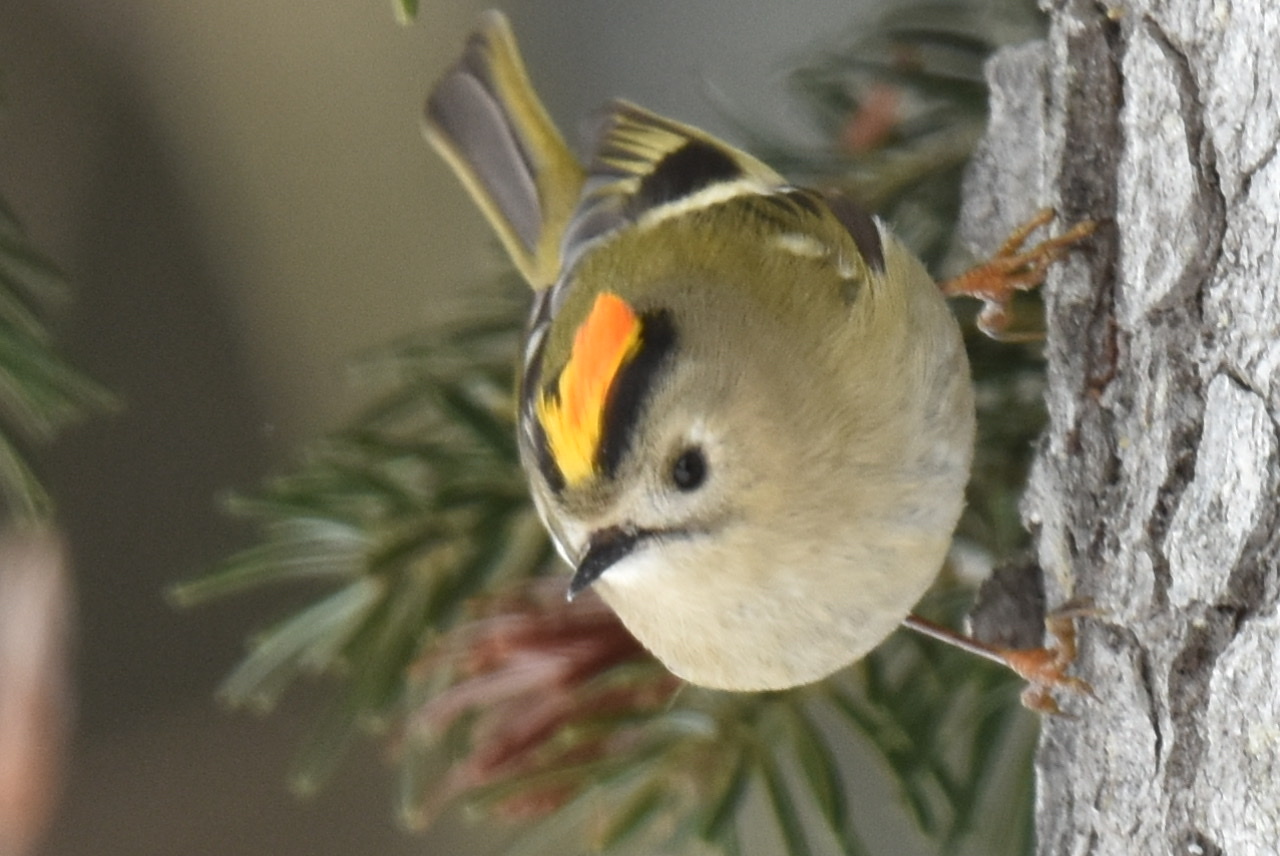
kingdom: Animalia
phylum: Chordata
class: Aves
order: Passeriformes
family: Regulidae
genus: Regulus
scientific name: Regulus regulus
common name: Goldcrest
